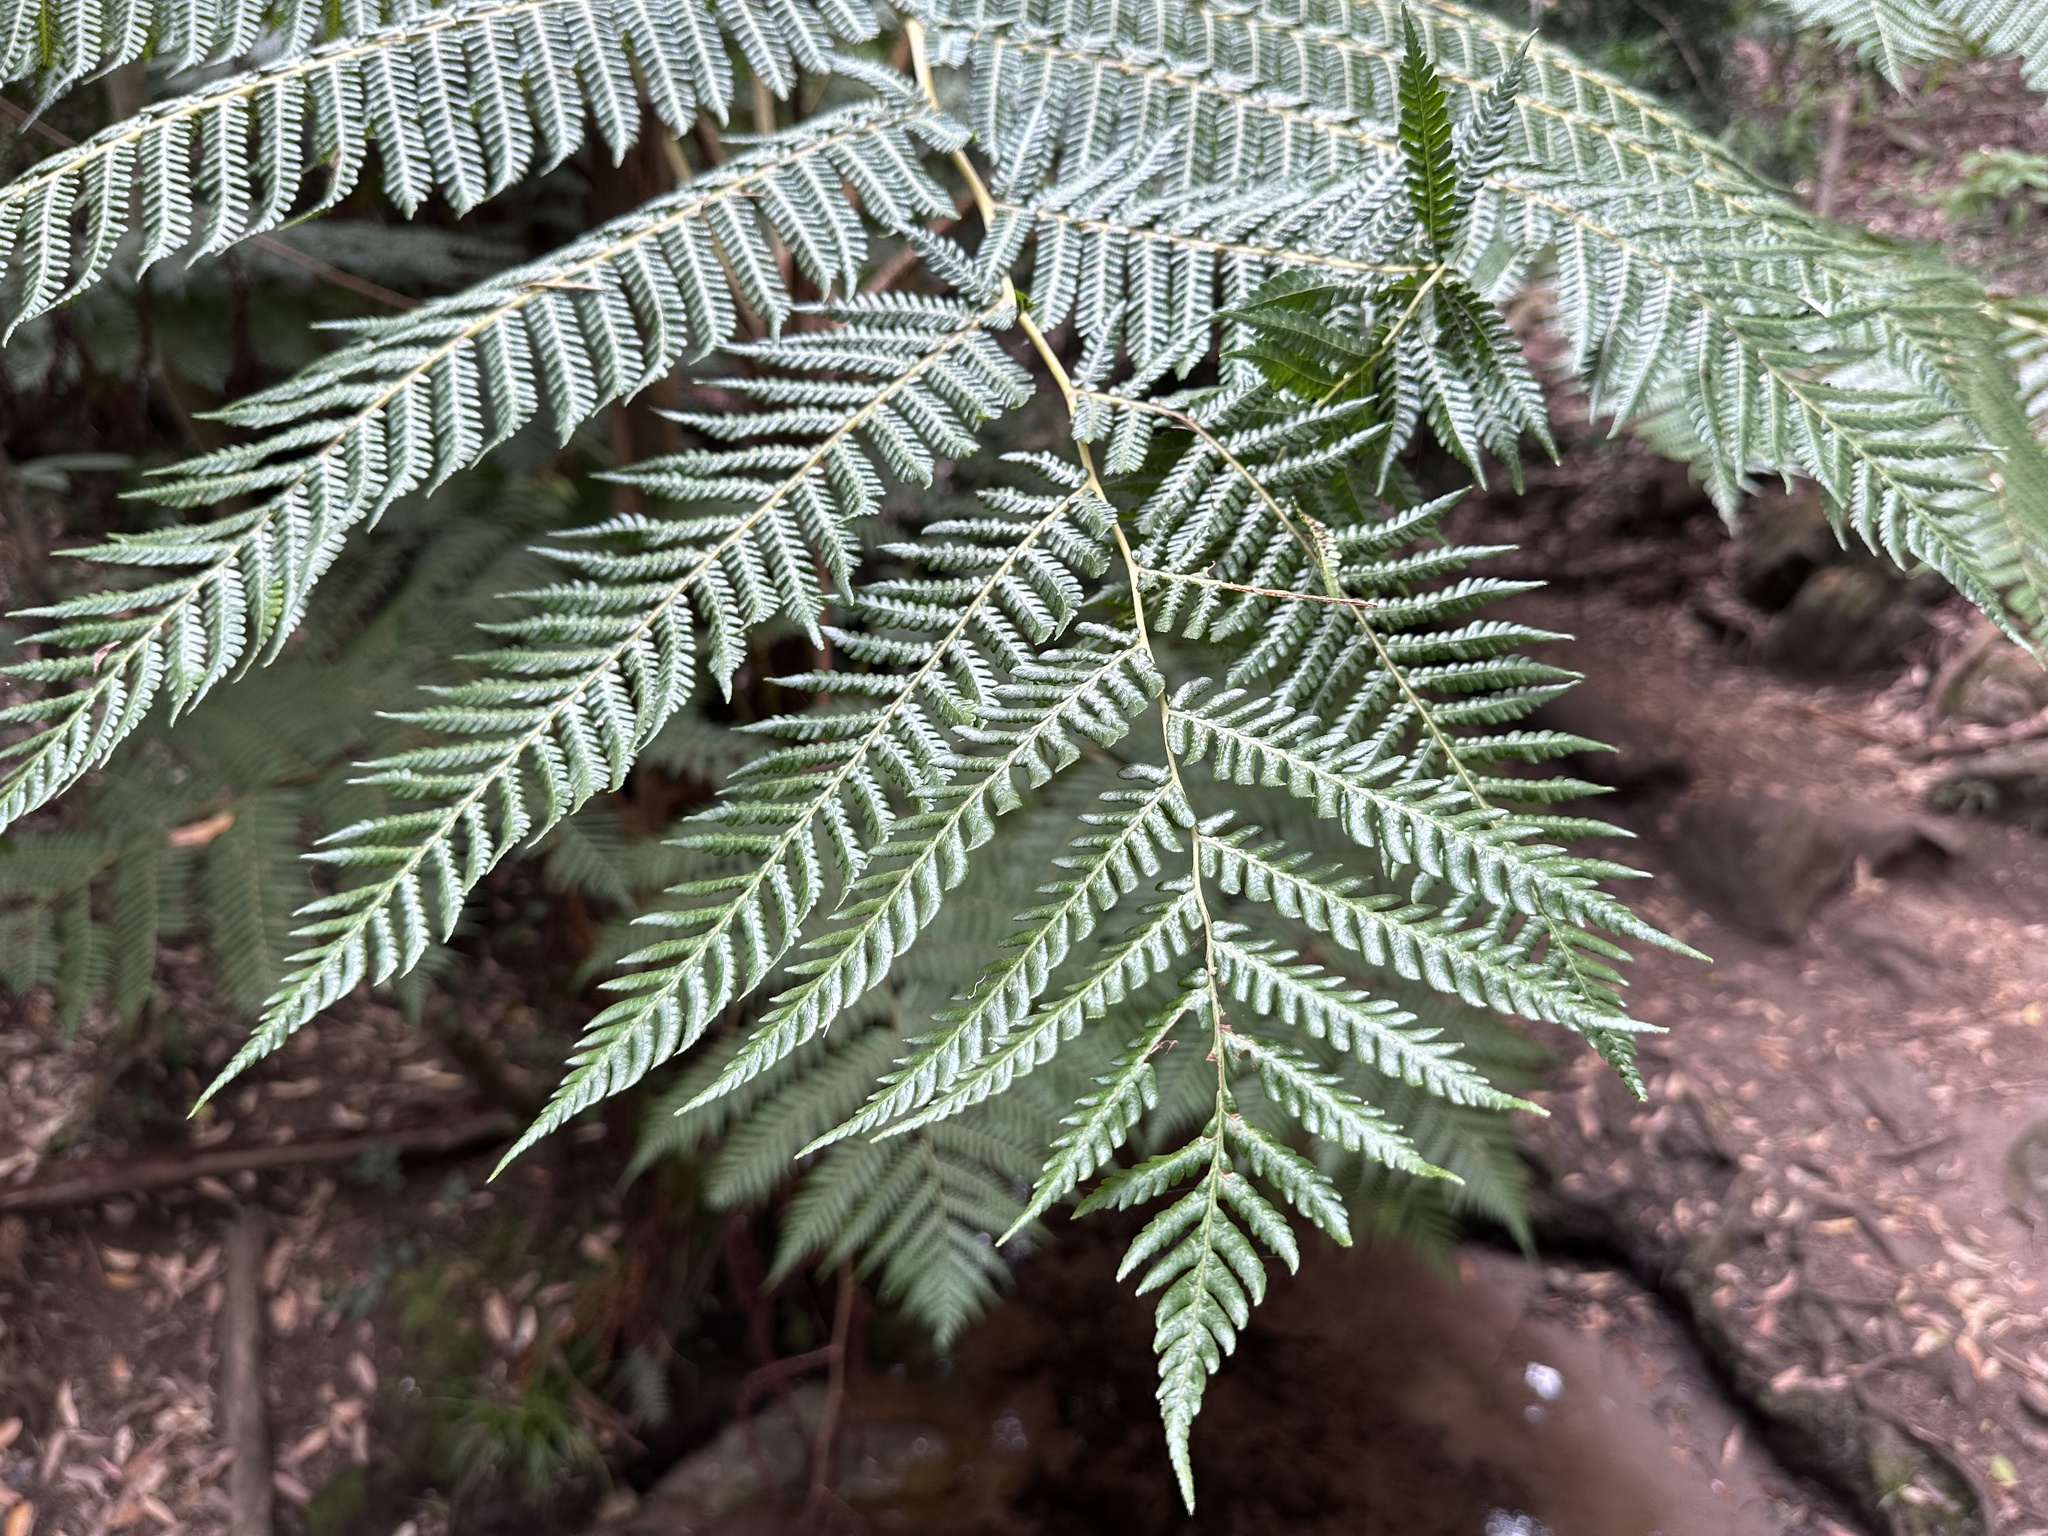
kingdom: Plantae
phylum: Tracheophyta
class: Polypodiopsida
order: Cyatheales
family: Cyatheaceae
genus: Sphaeropteris
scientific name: Sphaeropteris cooperi
